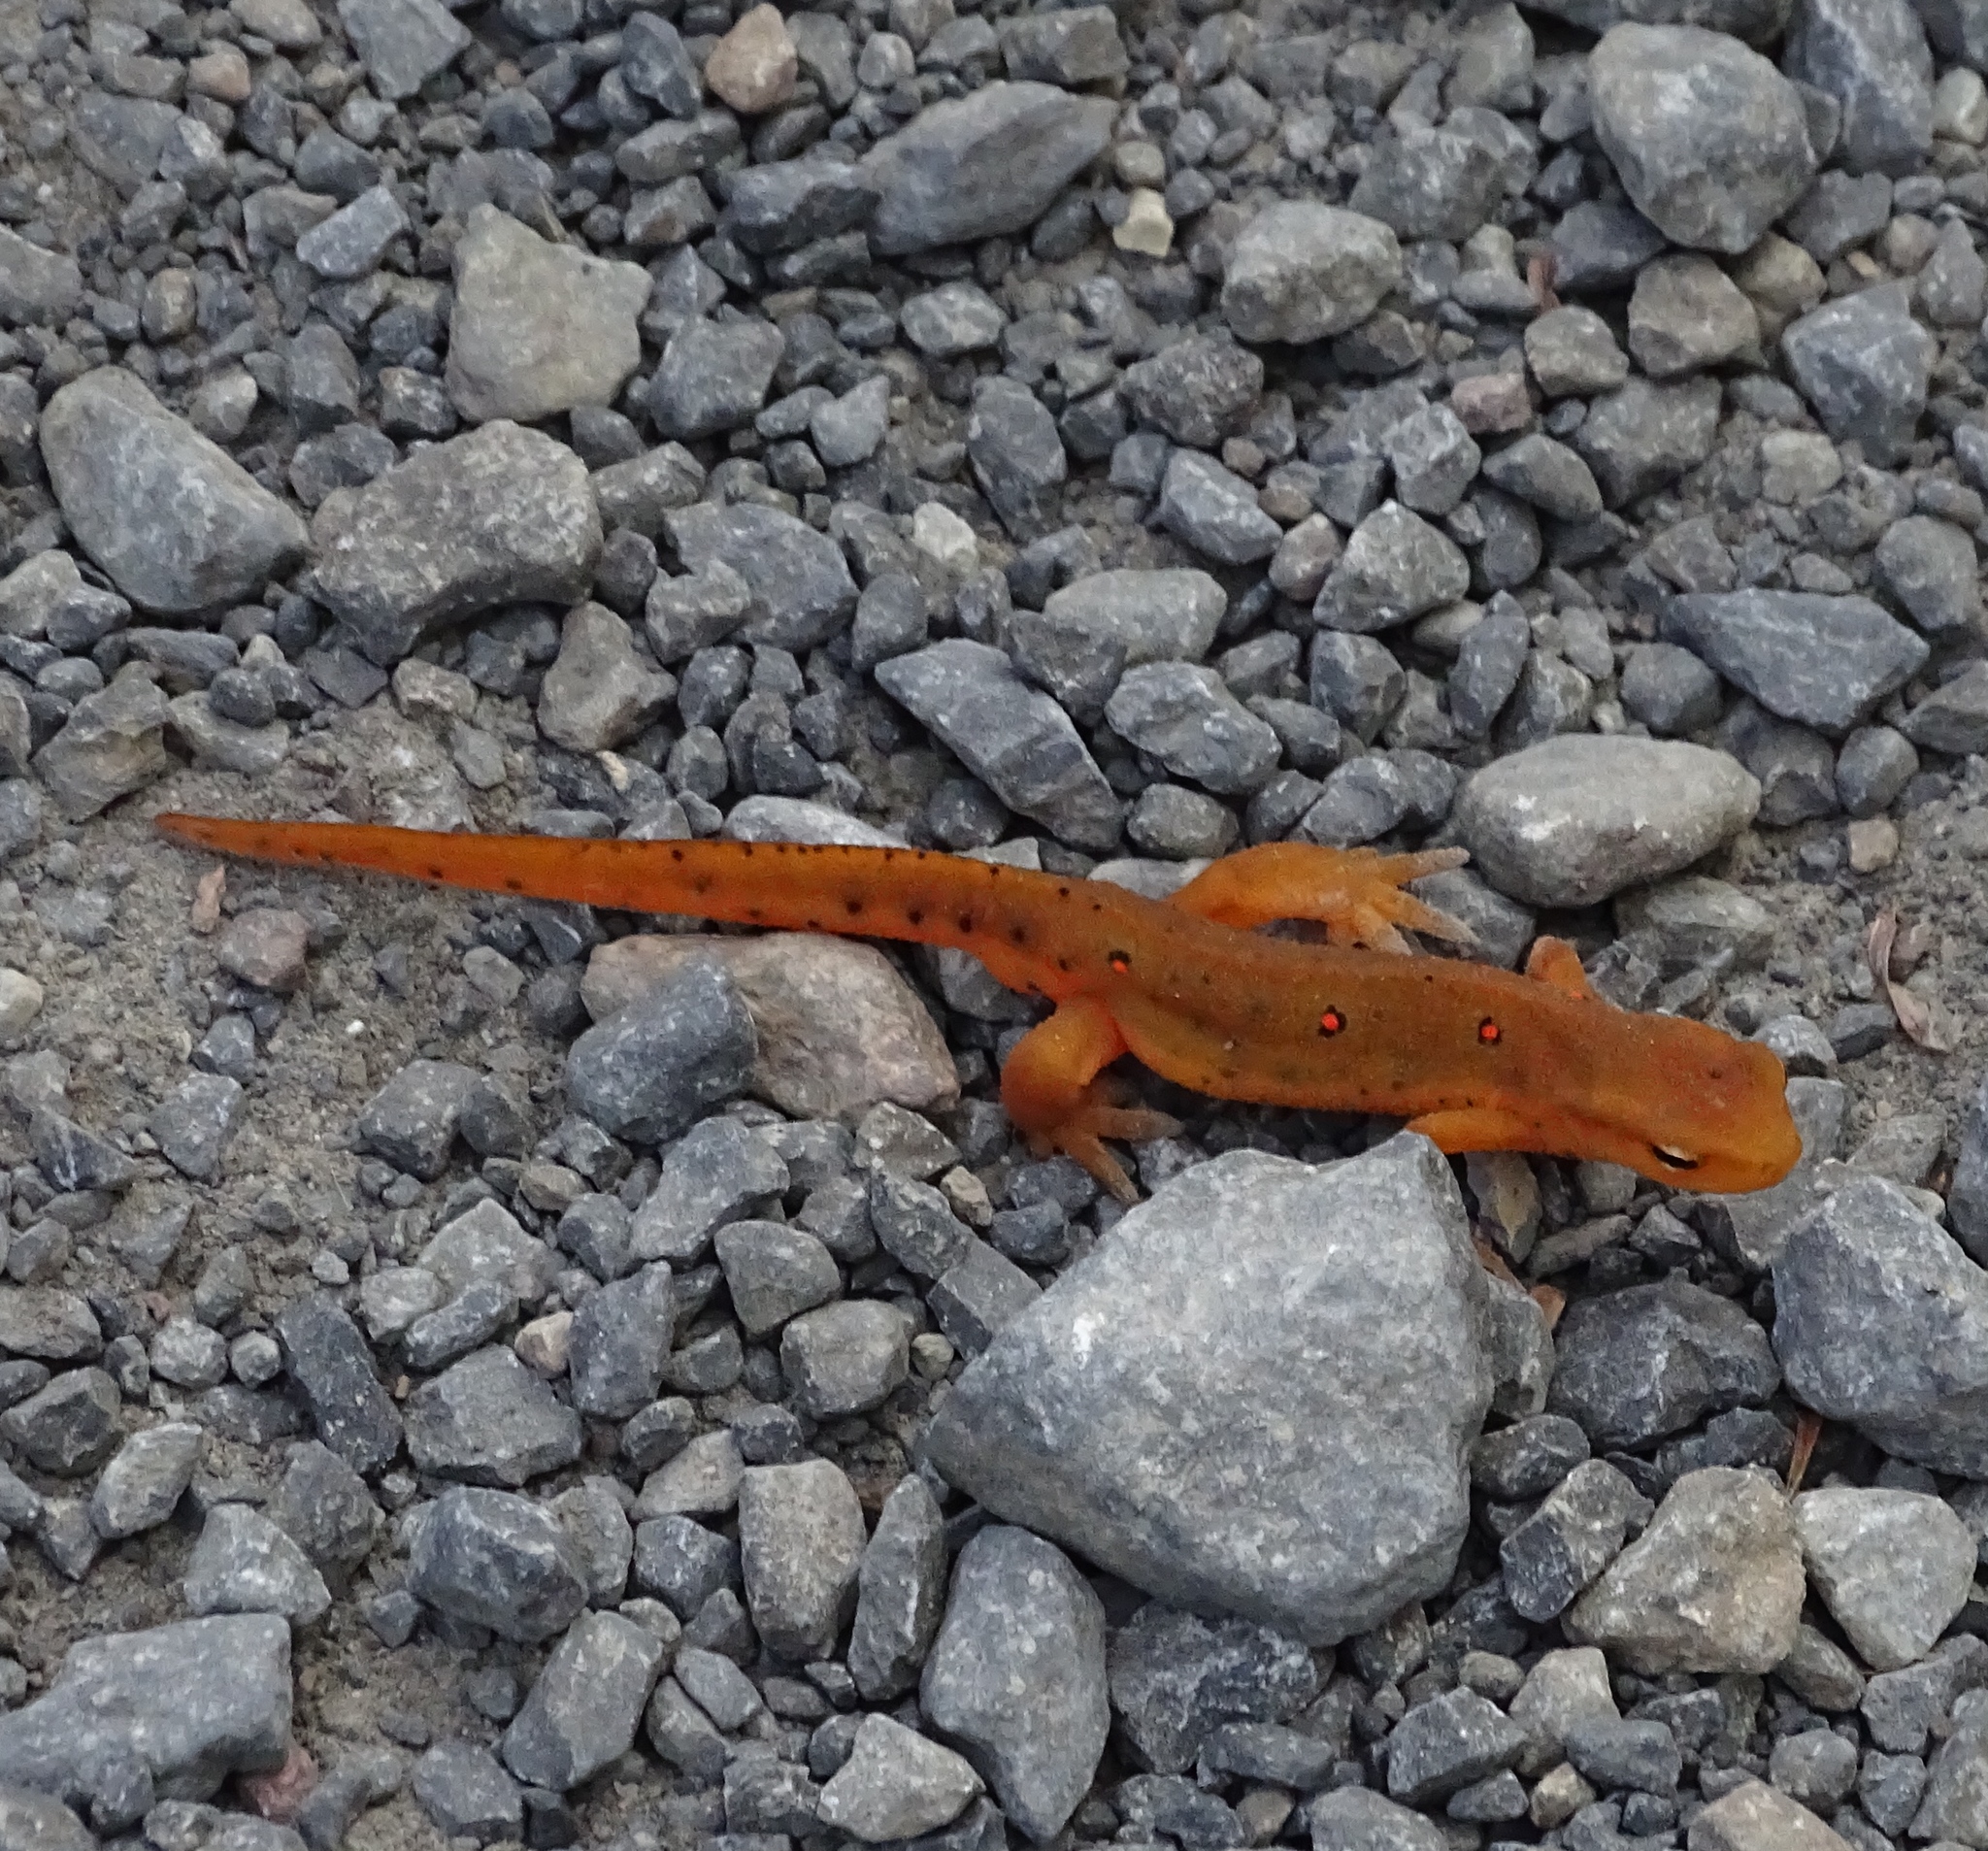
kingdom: Animalia
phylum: Chordata
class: Amphibia
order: Caudata
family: Salamandridae
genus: Notophthalmus
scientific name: Notophthalmus viridescens
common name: Eastern newt
